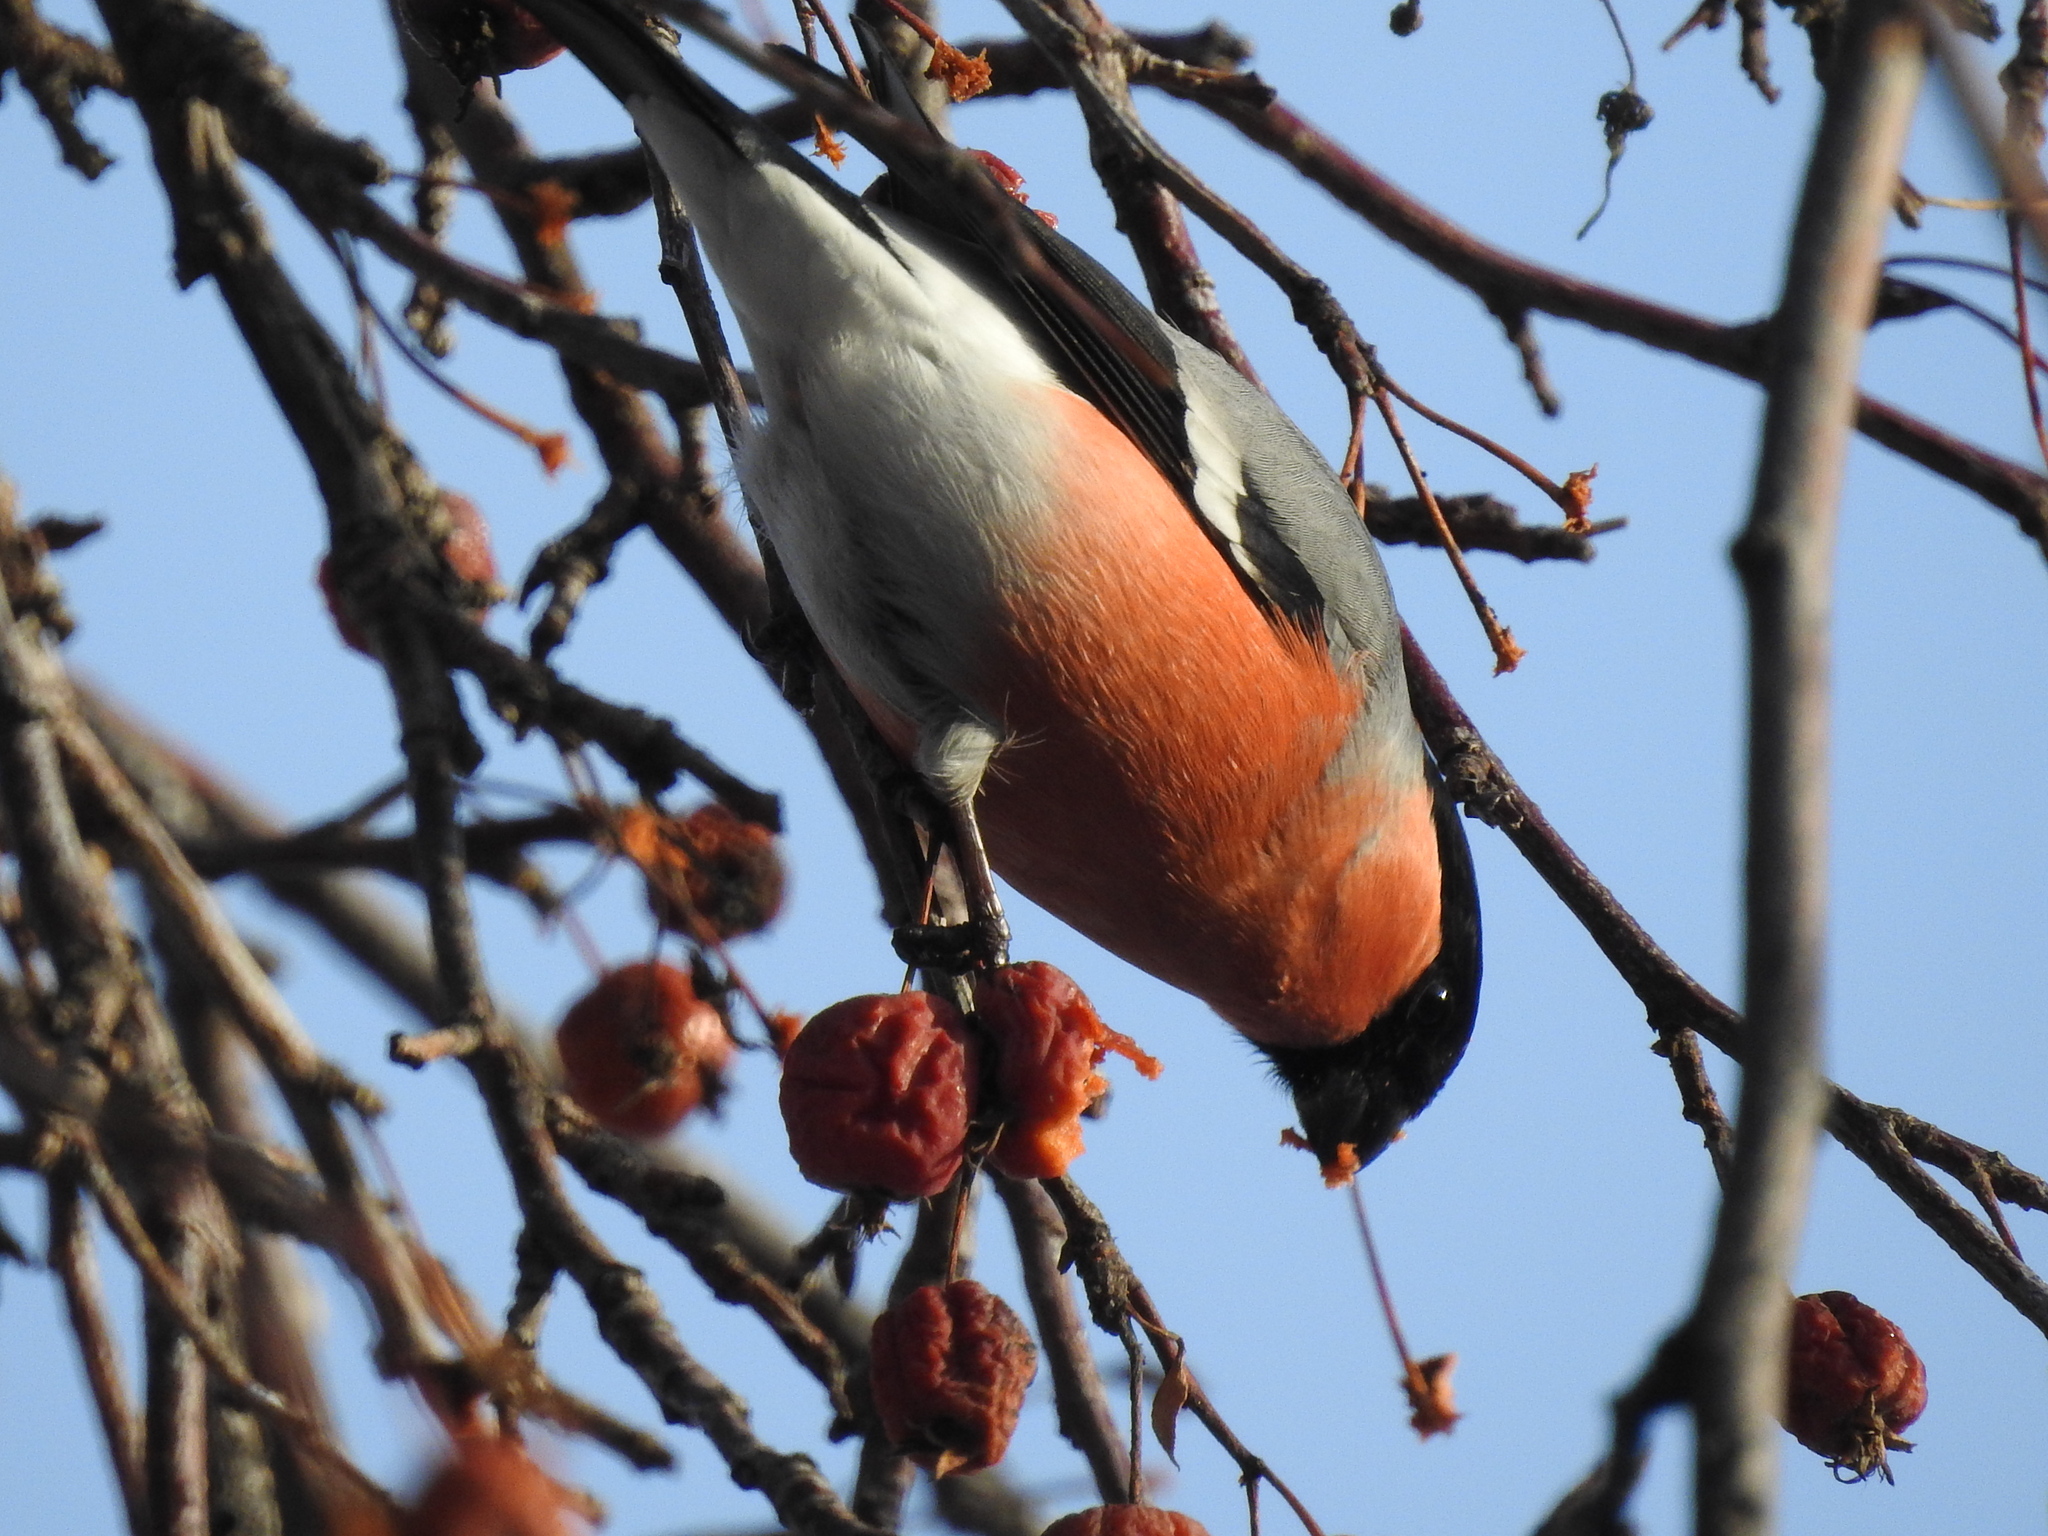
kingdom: Animalia
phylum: Chordata
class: Aves
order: Passeriformes
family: Fringillidae
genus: Pyrrhula
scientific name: Pyrrhula pyrrhula
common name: Eurasian bullfinch
